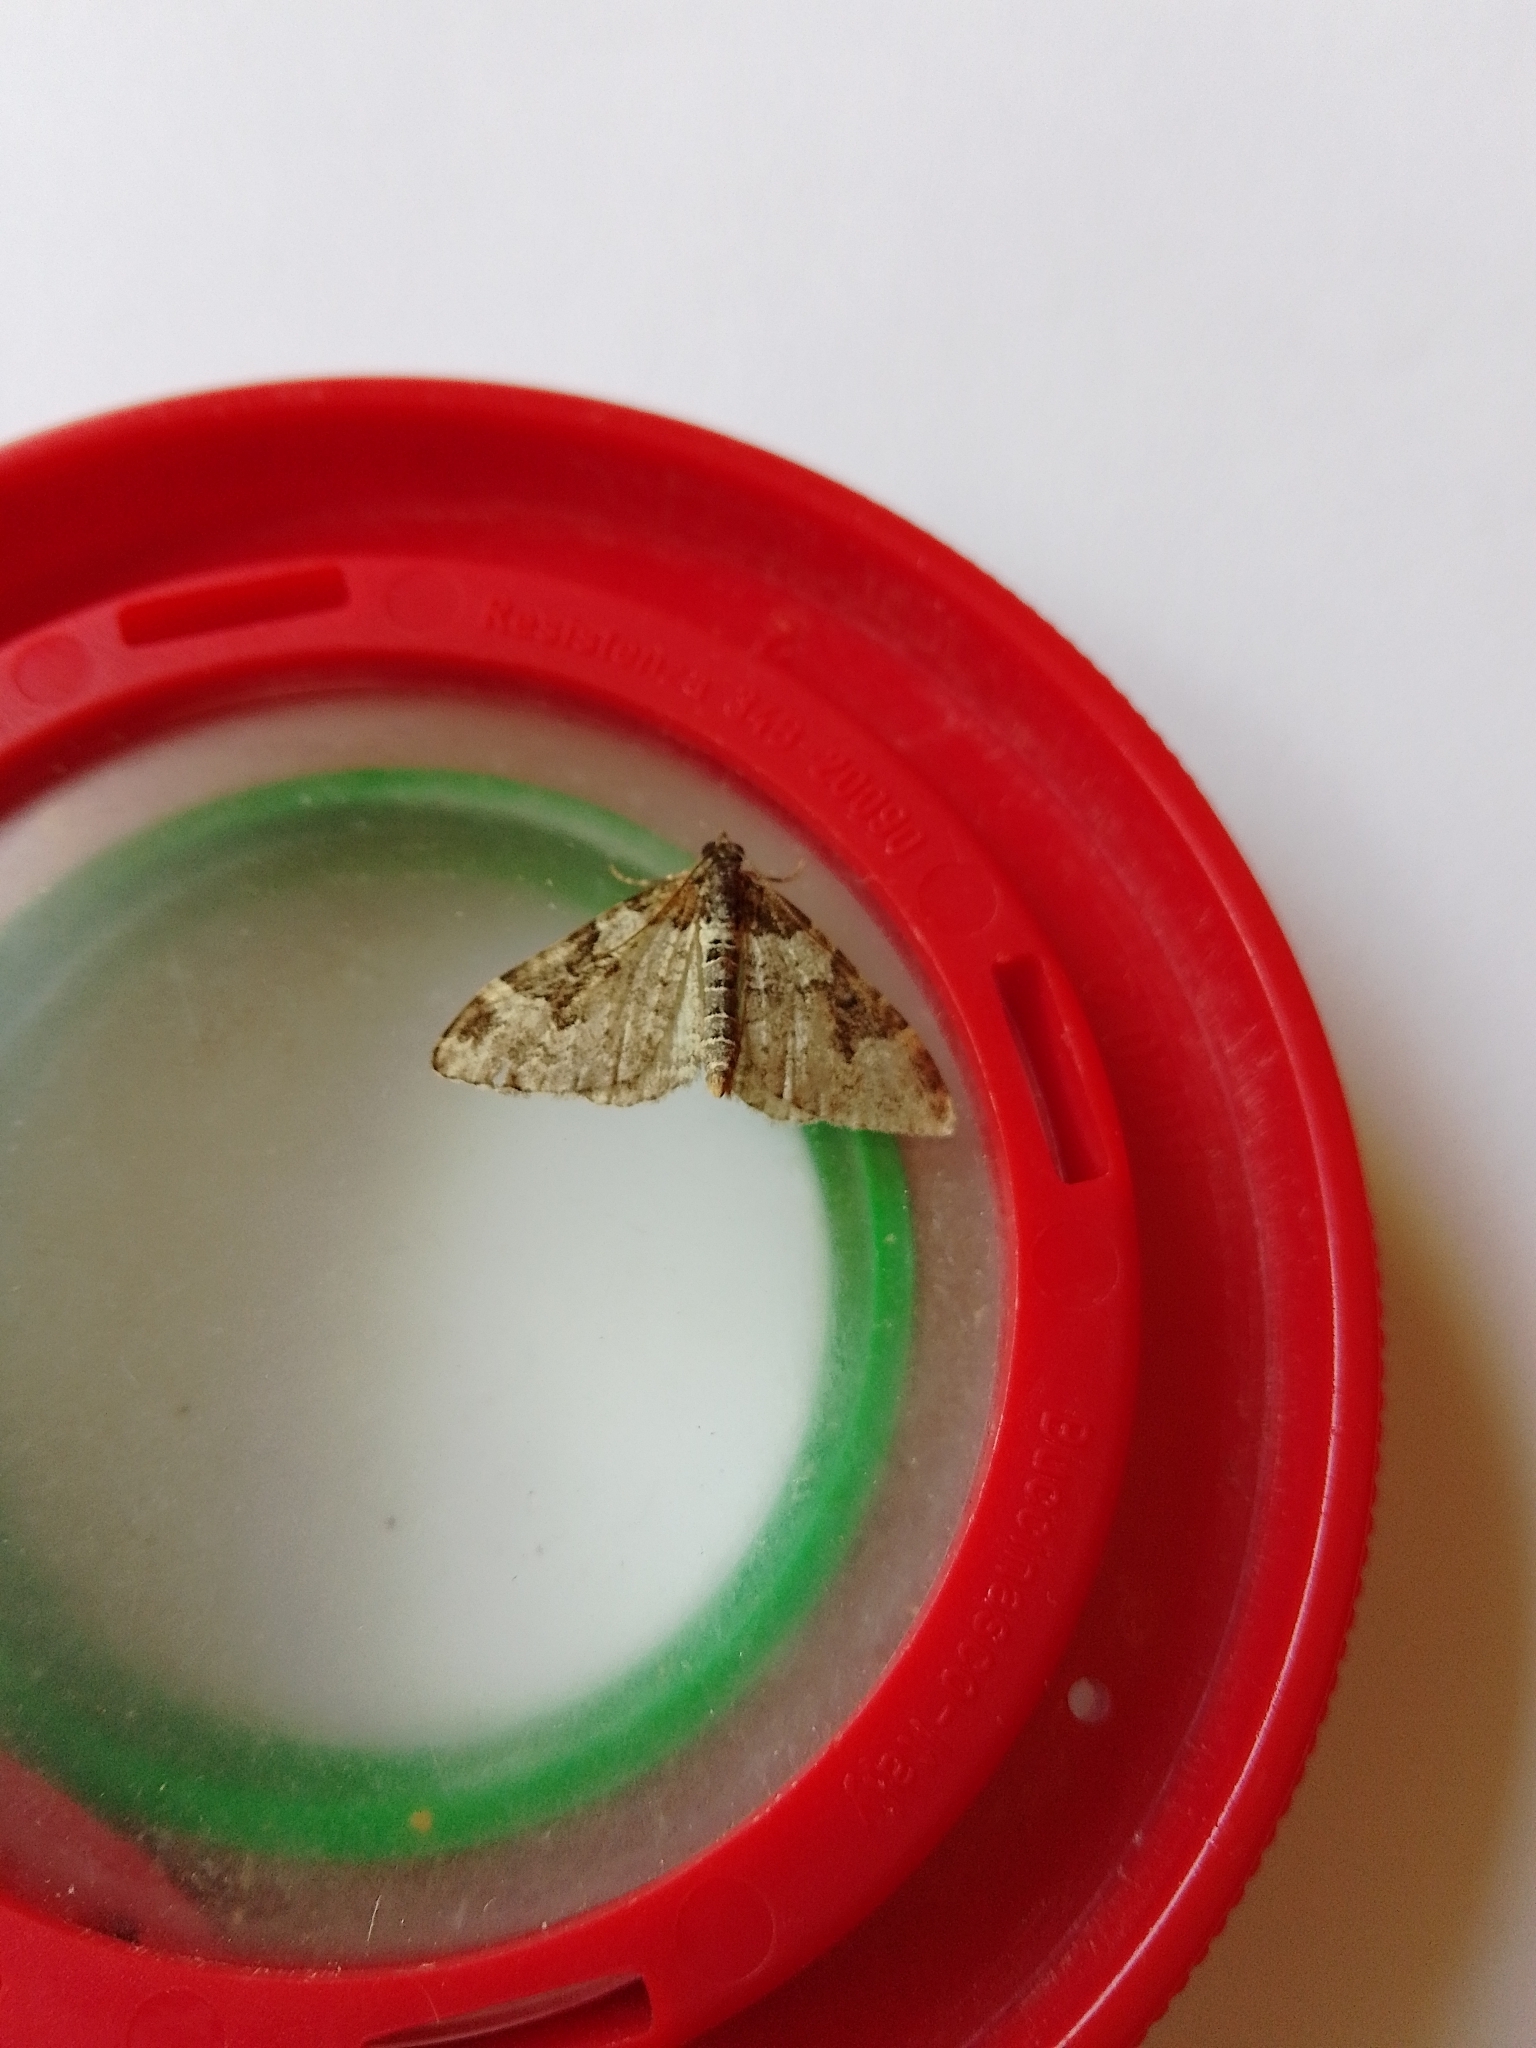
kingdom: Animalia
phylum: Arthropoda
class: Insecta
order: Lepidoptera
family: Geometridae
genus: Xanthorhoe
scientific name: Xanthorhoe fluctuata
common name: Garden carpet
